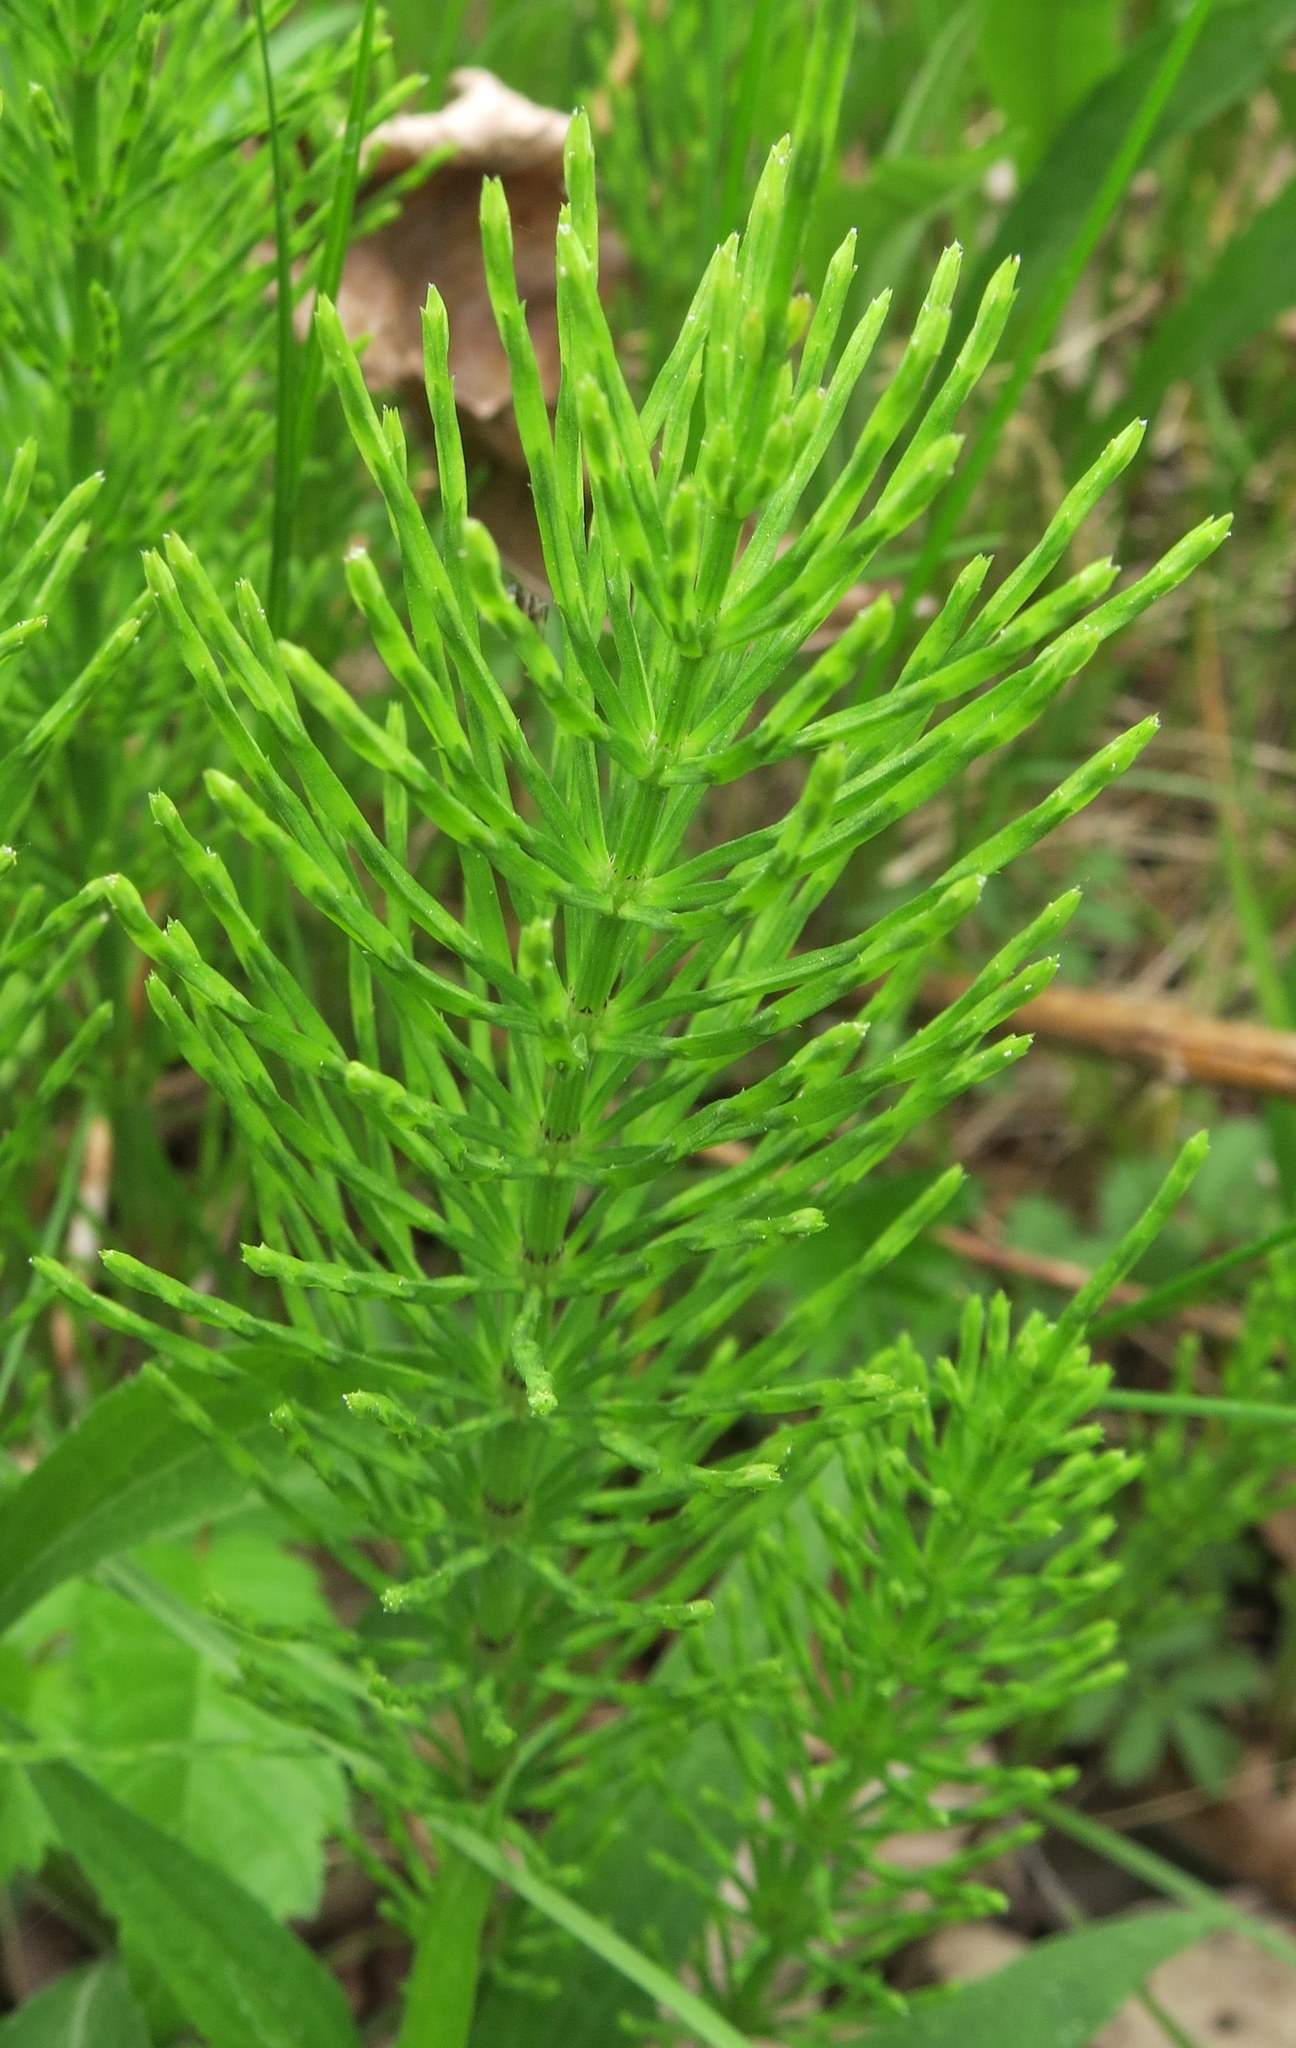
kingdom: Plantae
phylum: Tracheophyta
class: Polypodiopsida
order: Equisetales
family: Equisetaceae
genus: Equisetum
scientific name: Equisetum arvense
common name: Field horsetail
